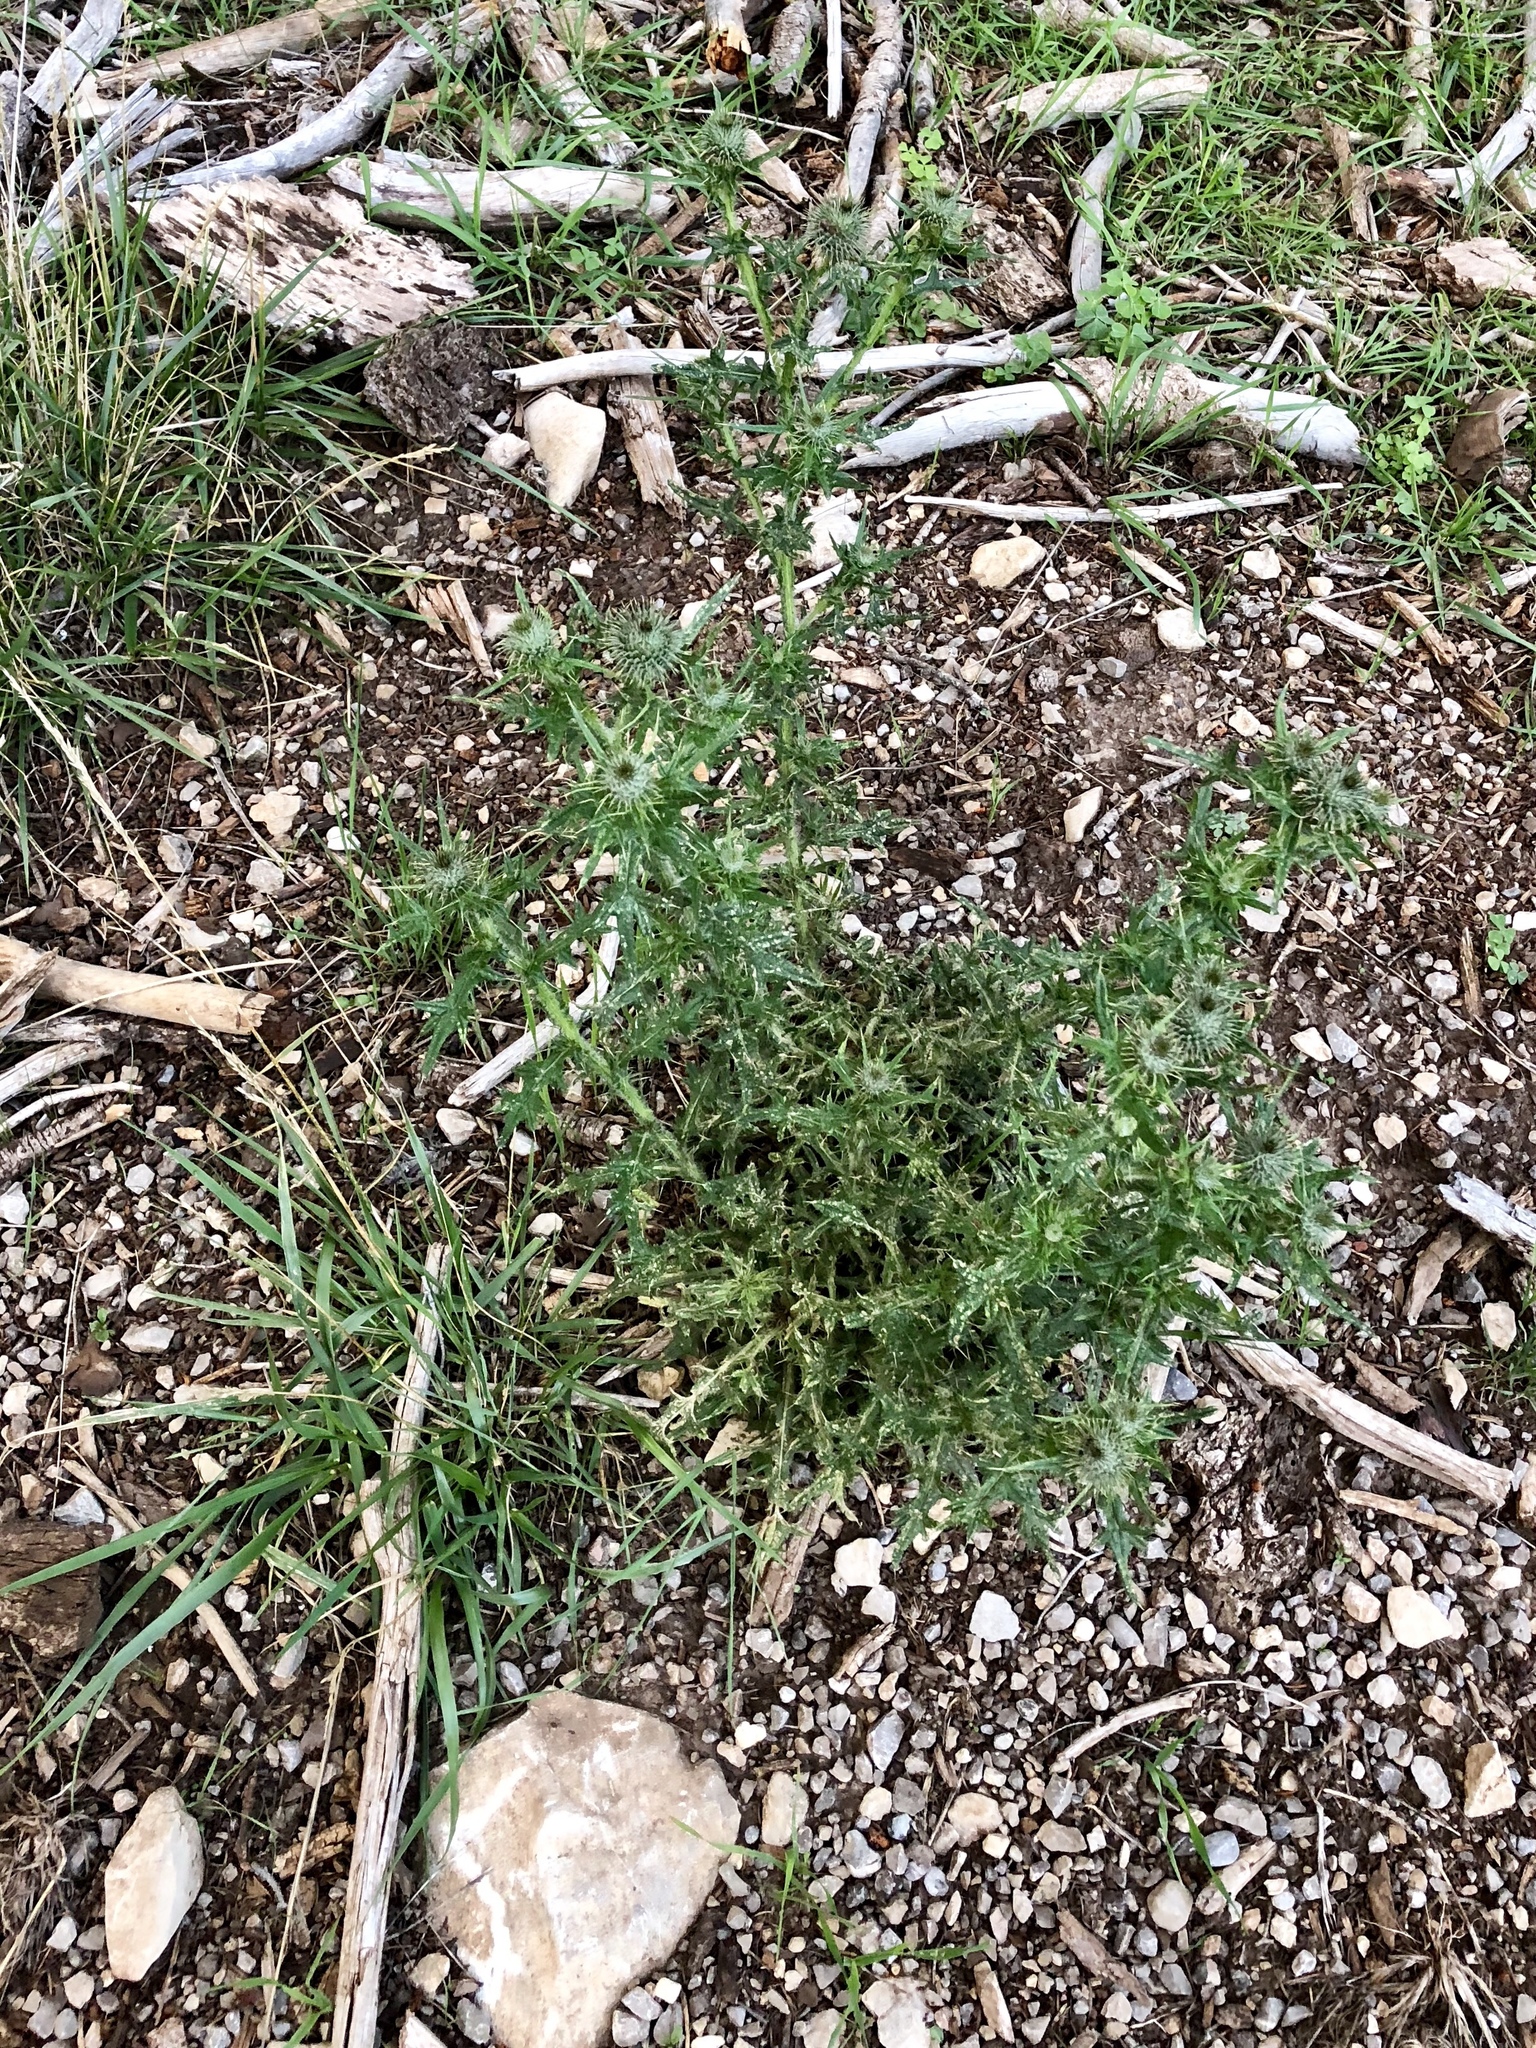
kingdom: Plantae
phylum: Tracheophyta
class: Magnoliopsida
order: Asterales
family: Asteraceae
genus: Cirsium
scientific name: Cirsium vulgare
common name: Bull thistle
